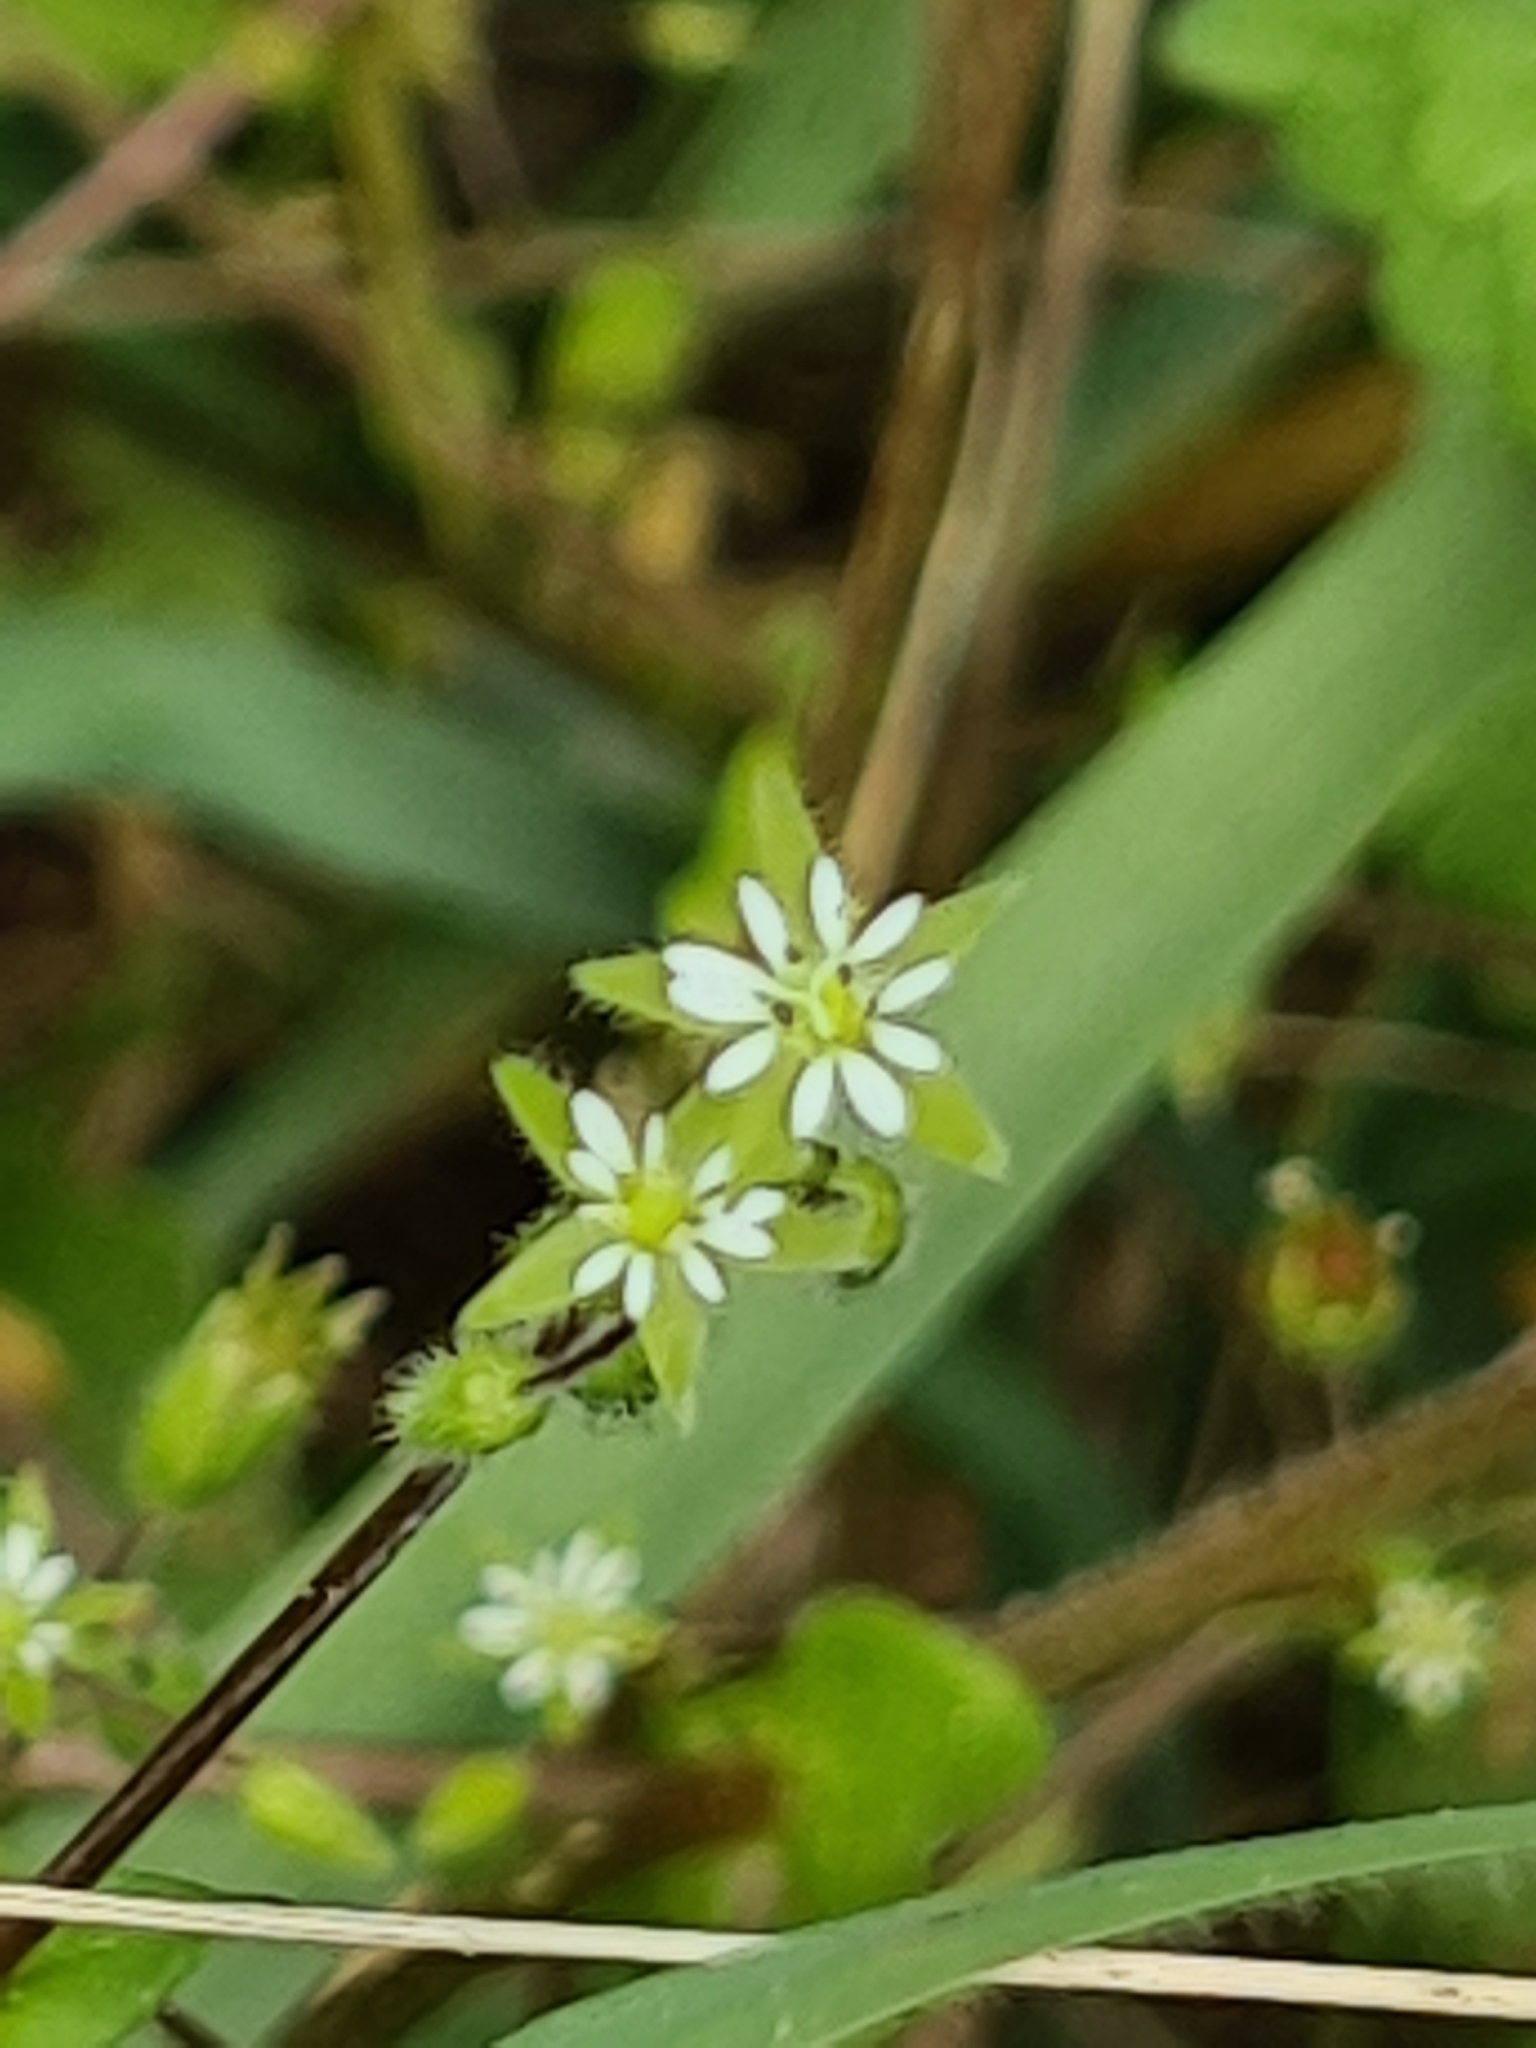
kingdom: Plantae
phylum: Tracheophyta
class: Magnoliopsida
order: Caryophyllales
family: Caryophyllaceae
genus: Stellaria
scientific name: Stellaria media
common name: Common chickweed
